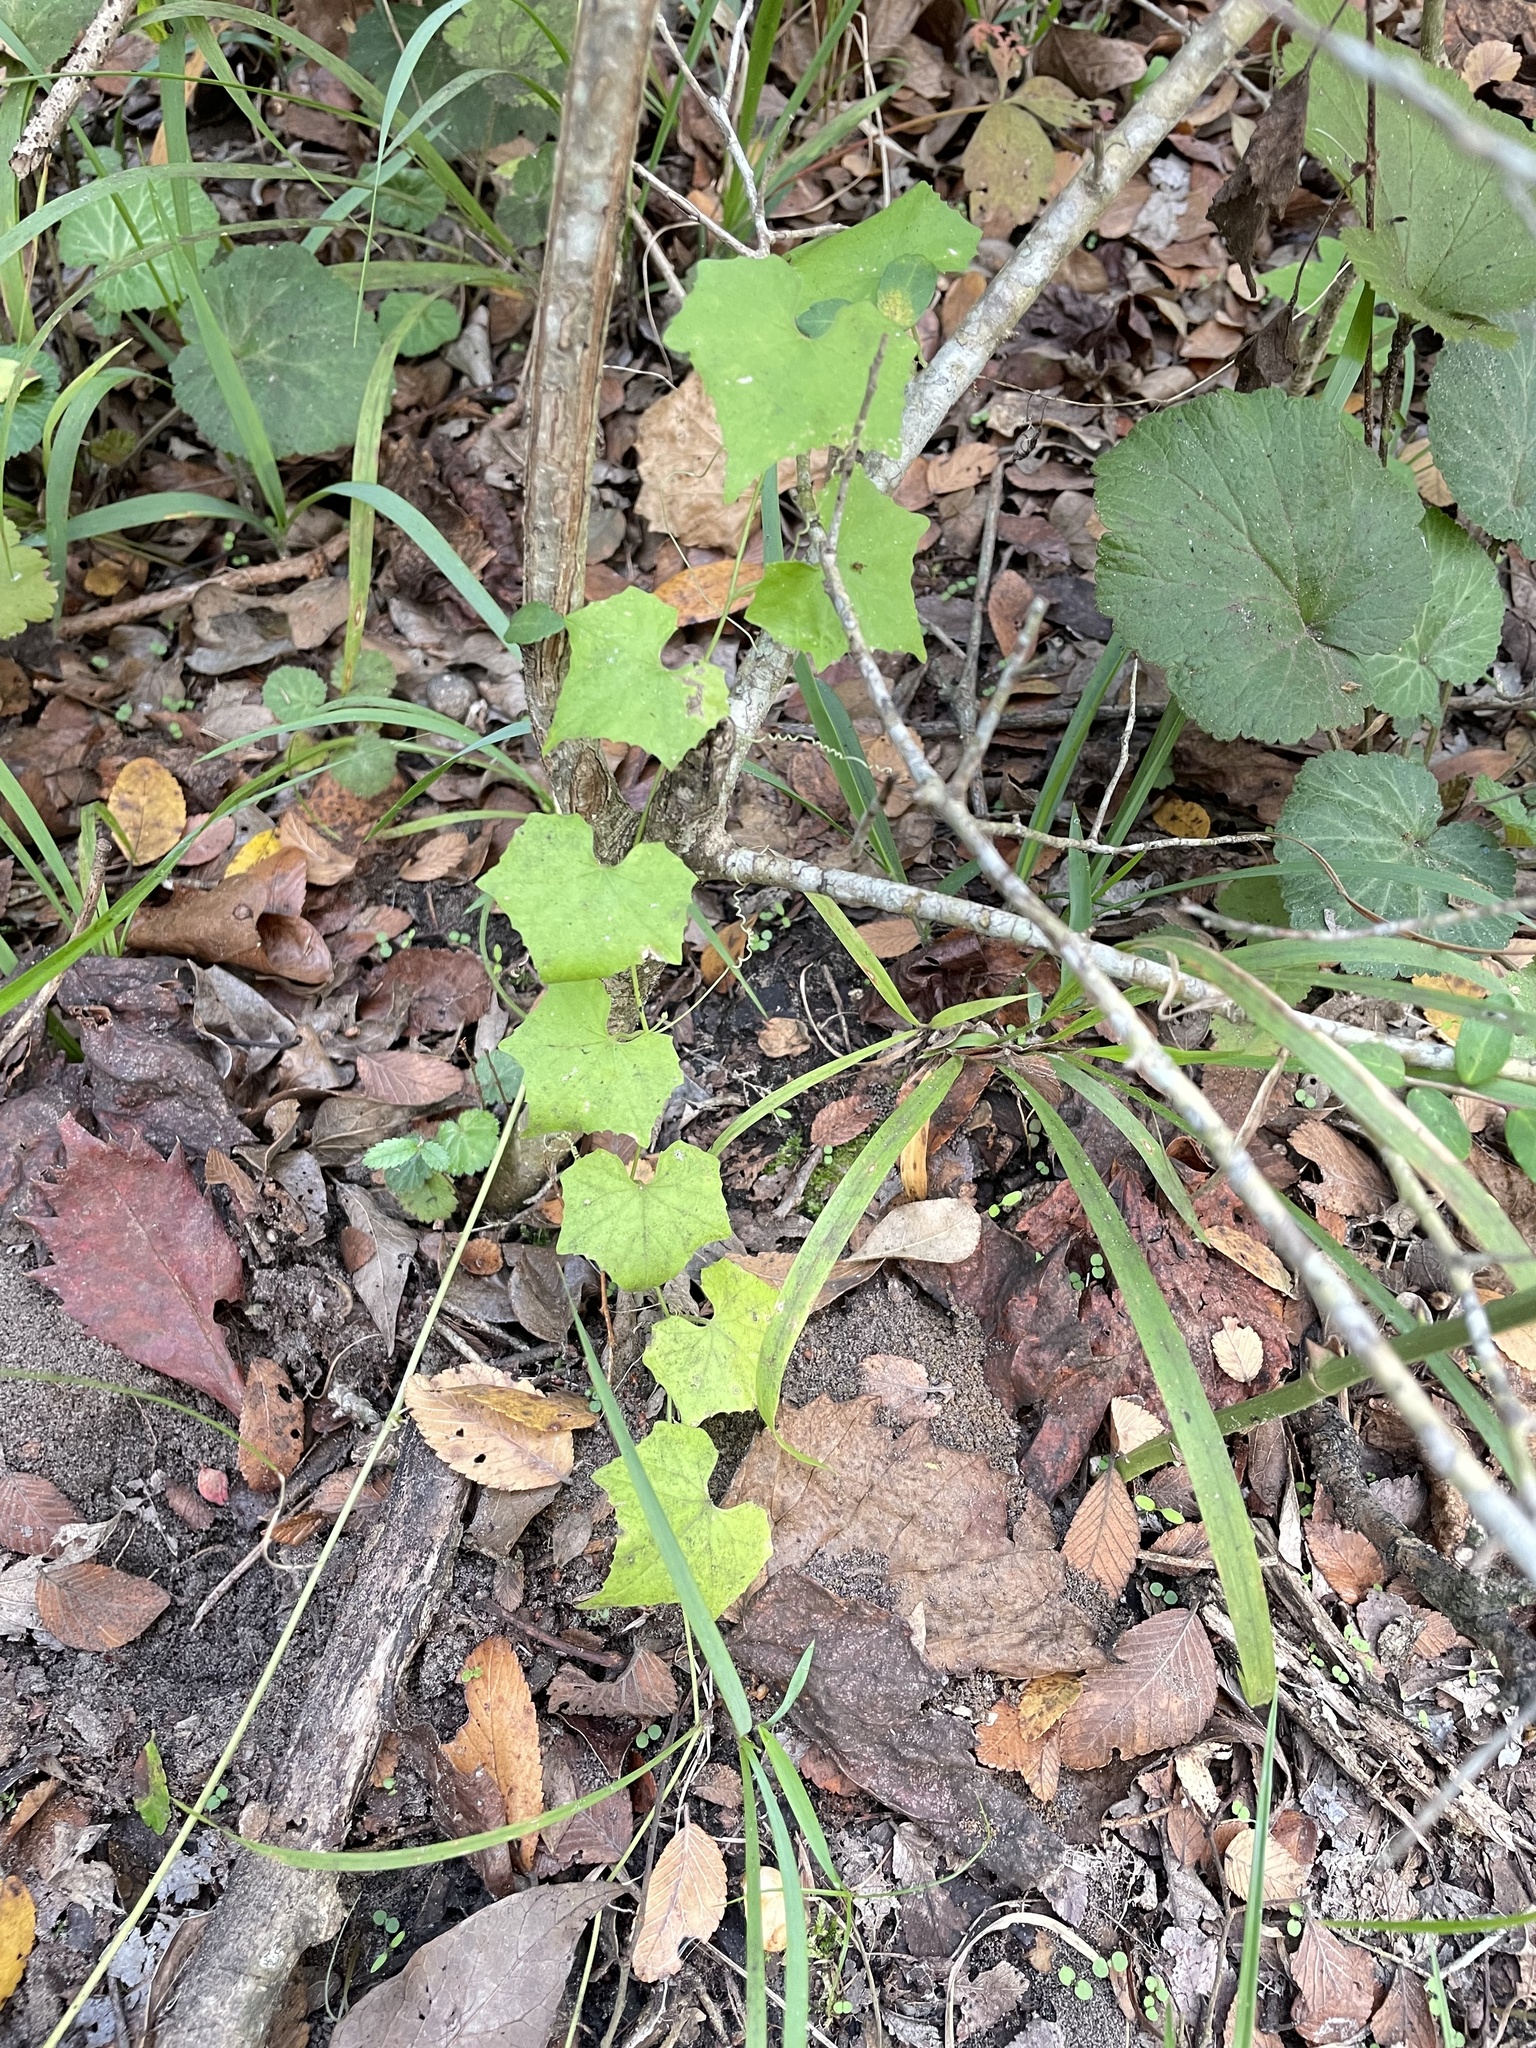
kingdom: Plantae
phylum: Tracheophyta
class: Magnoliopsida
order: Cucurbitales
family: Cucurbitaceae
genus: Melothria
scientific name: Melothria pendula
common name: Creeping-cucumber
